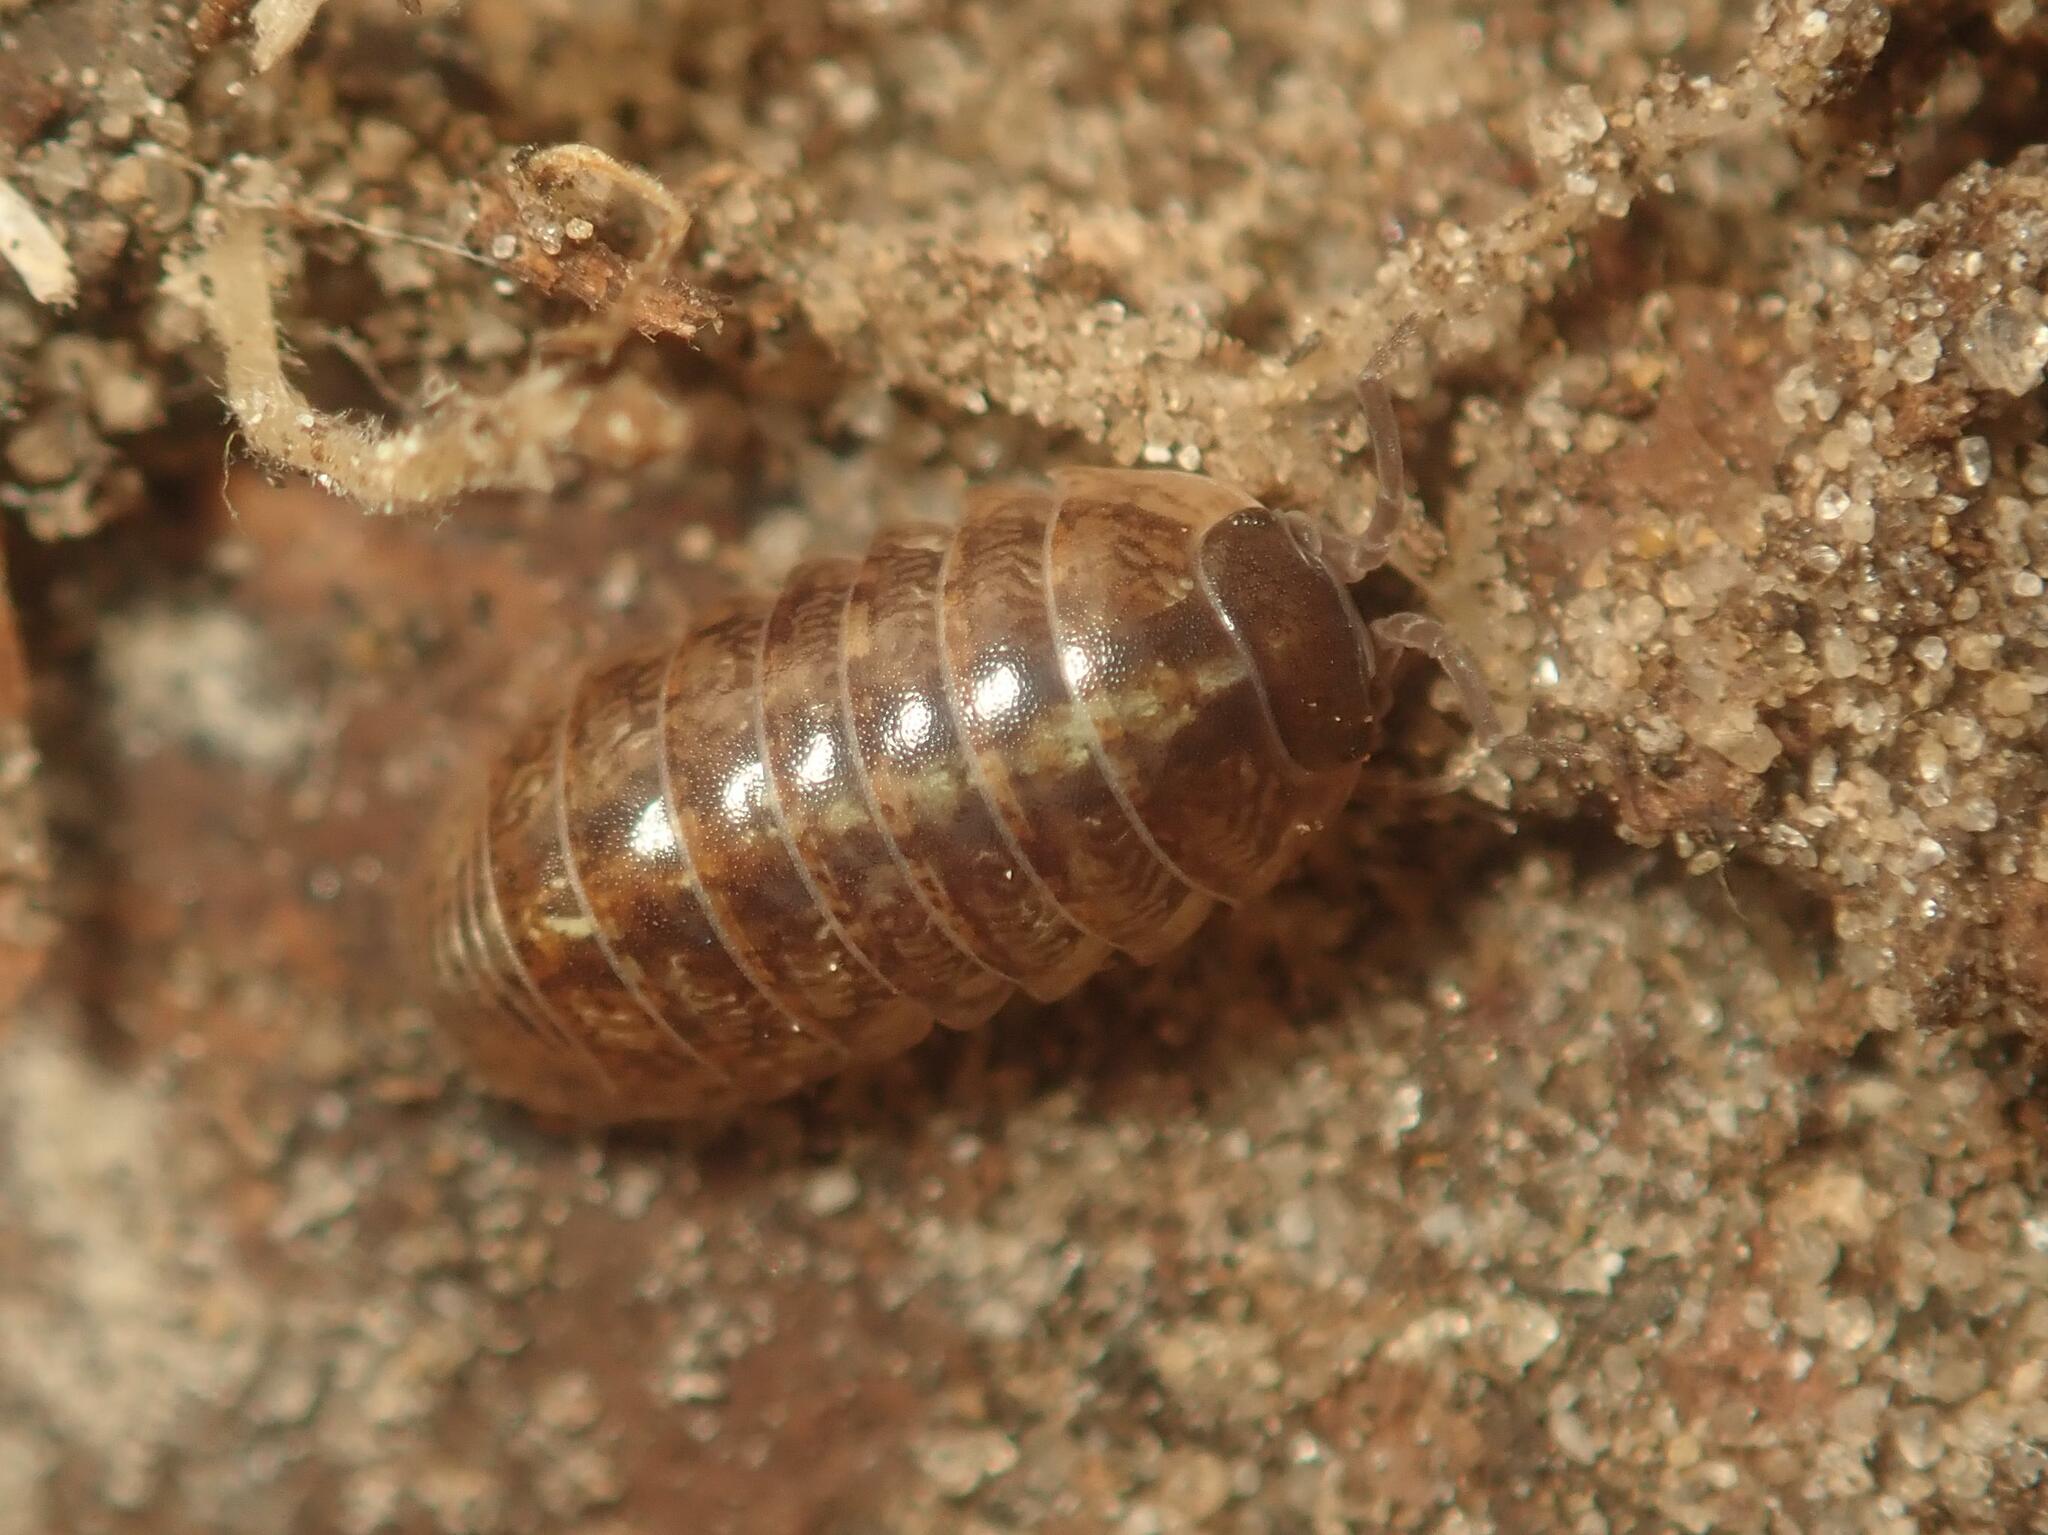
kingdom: Animalia
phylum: Arthropoda
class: Malacostraca
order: Isopoda
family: Armadillidiidae
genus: Armadillidium
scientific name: Armadillidium vulgare
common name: Common pill woodlouse
